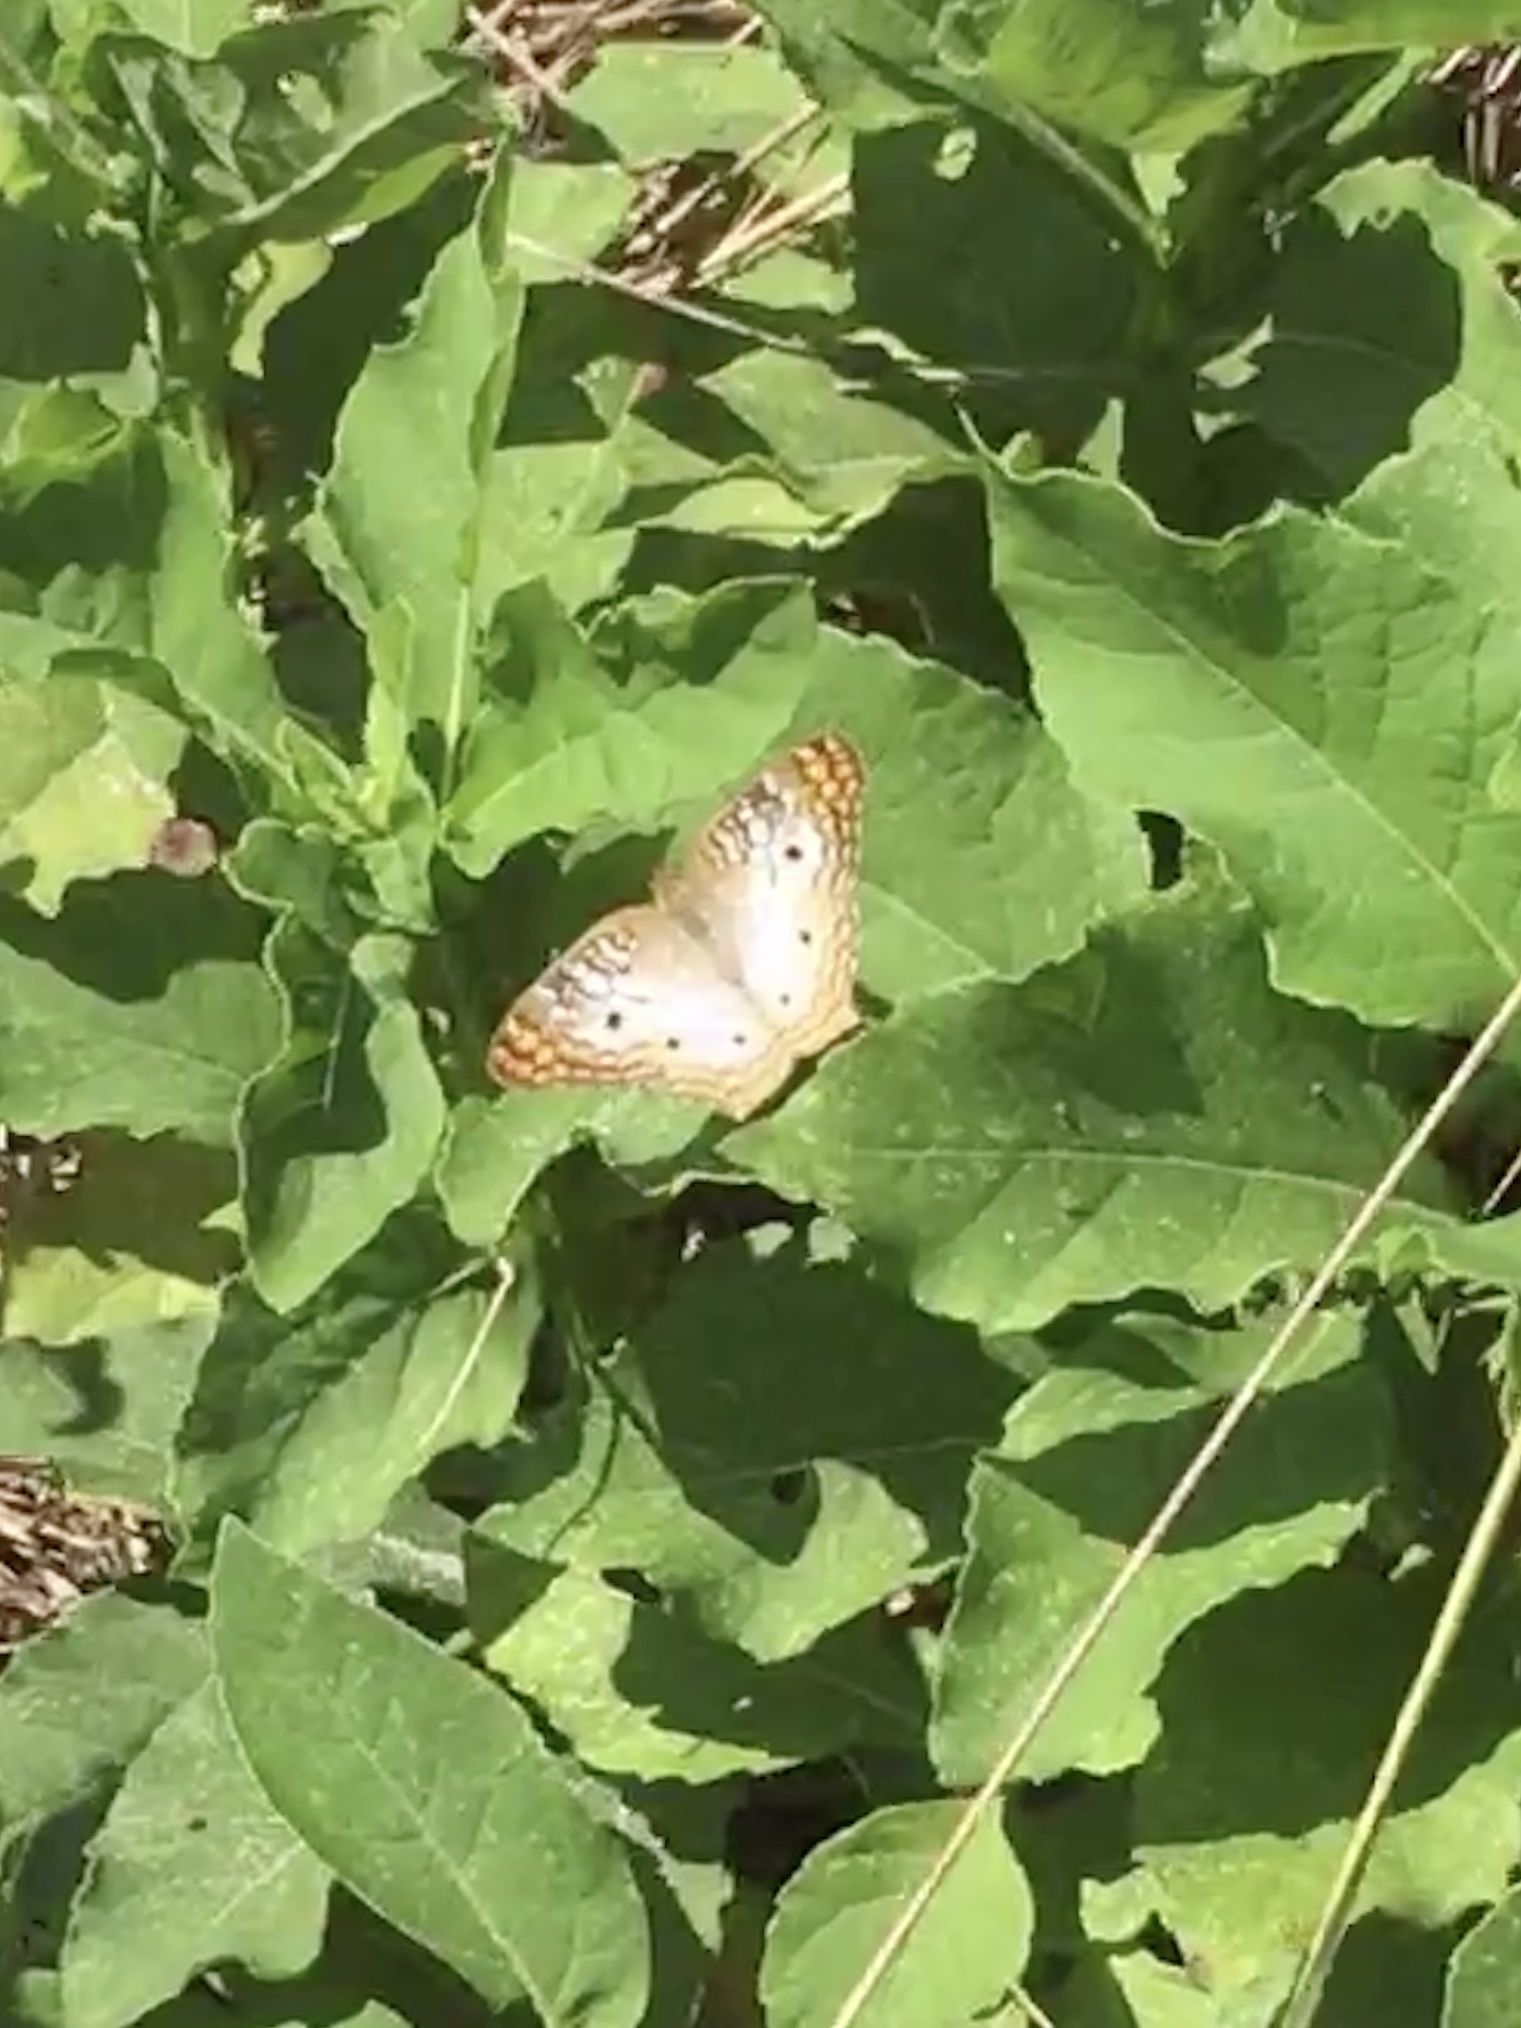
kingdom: Animalia
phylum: Arthropoda
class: Insecta
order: Lepidoptera
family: Nymphalidae
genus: Anartia
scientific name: Anartia jatrophae
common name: White peacock
